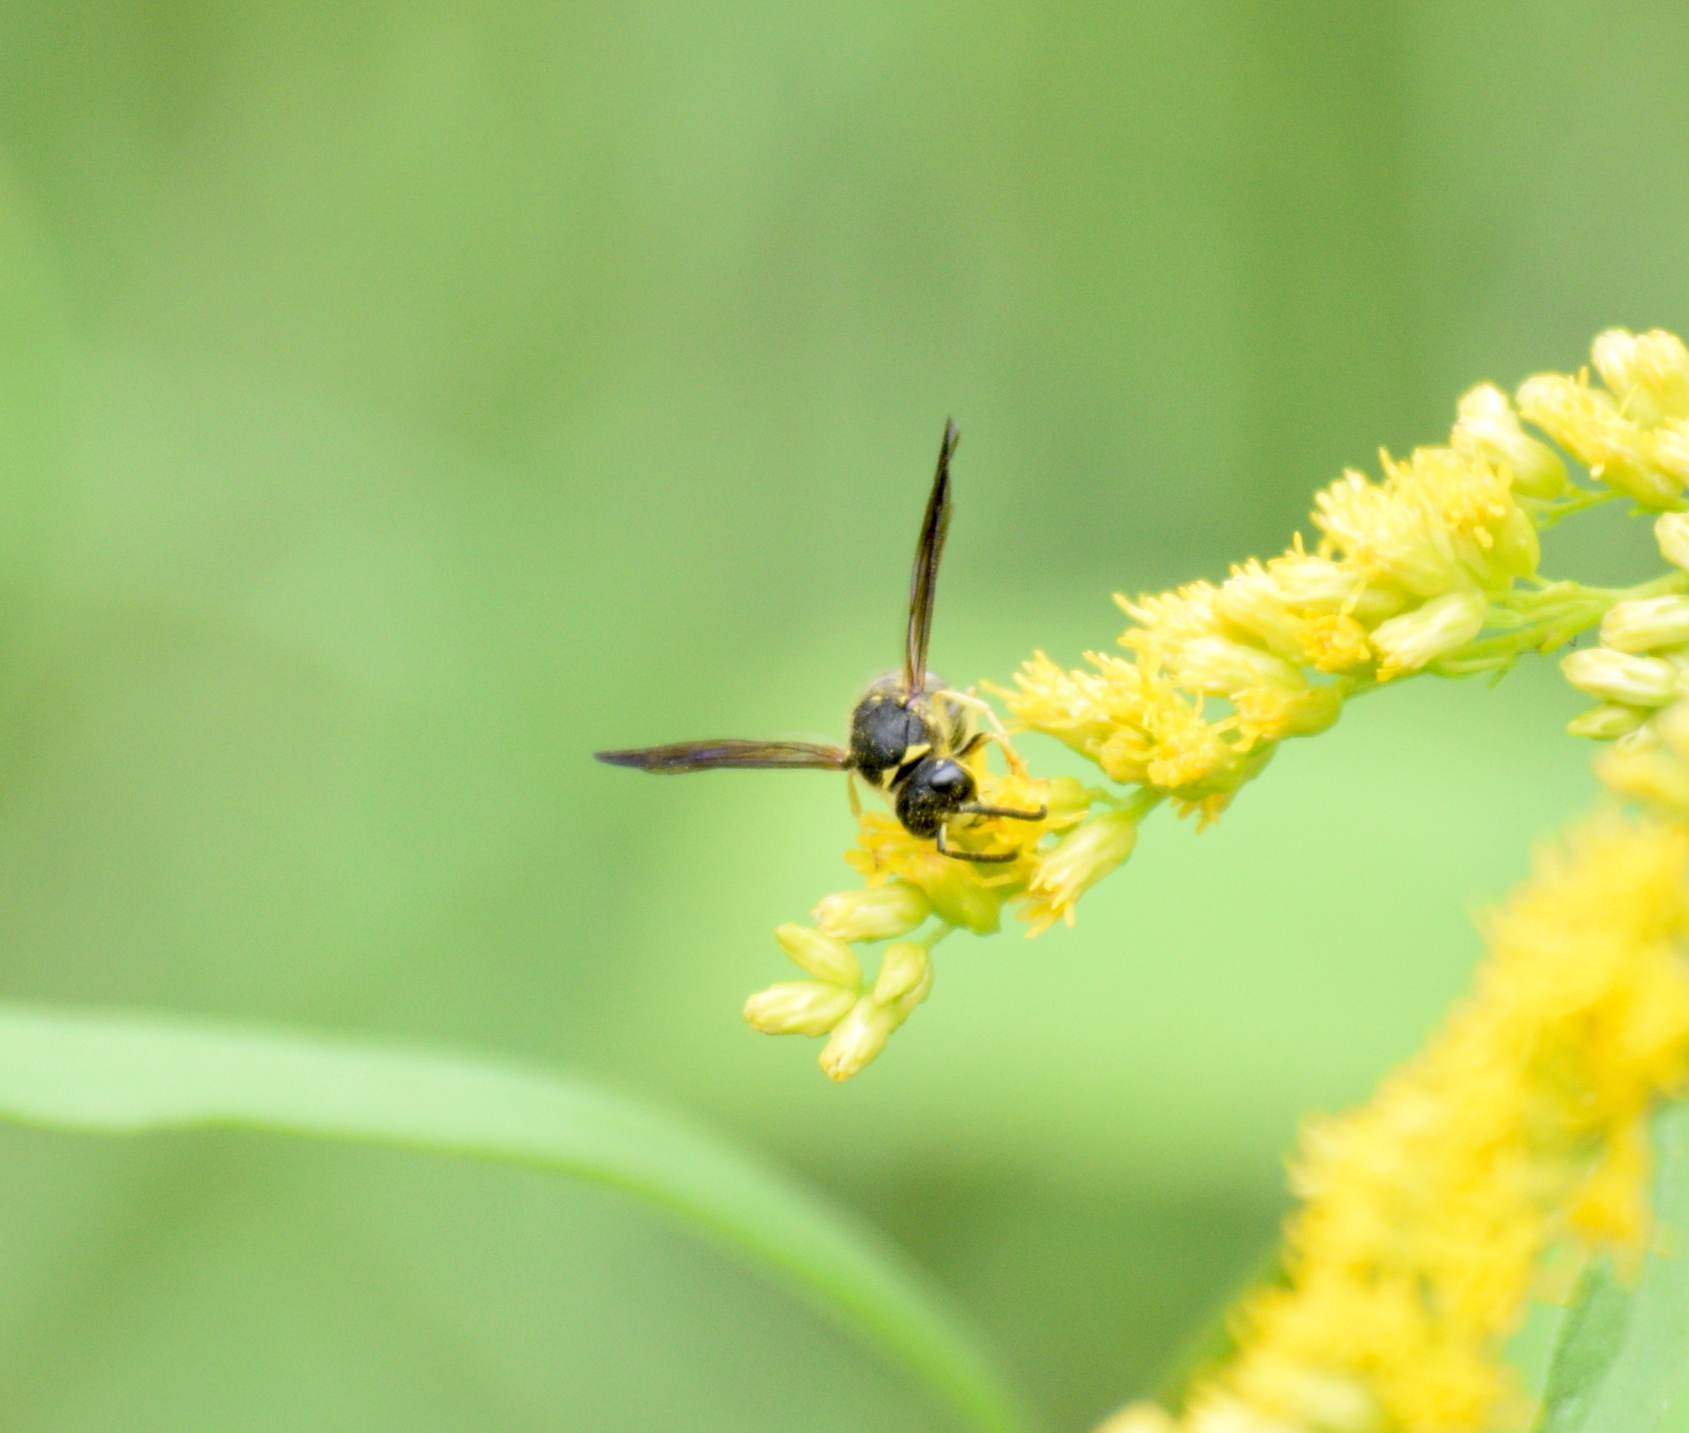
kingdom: Animalia
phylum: Arthropoda
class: Insecta
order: Hymenoptera
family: Vespidae
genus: Ancistrocerus
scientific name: Ancistrocerus
